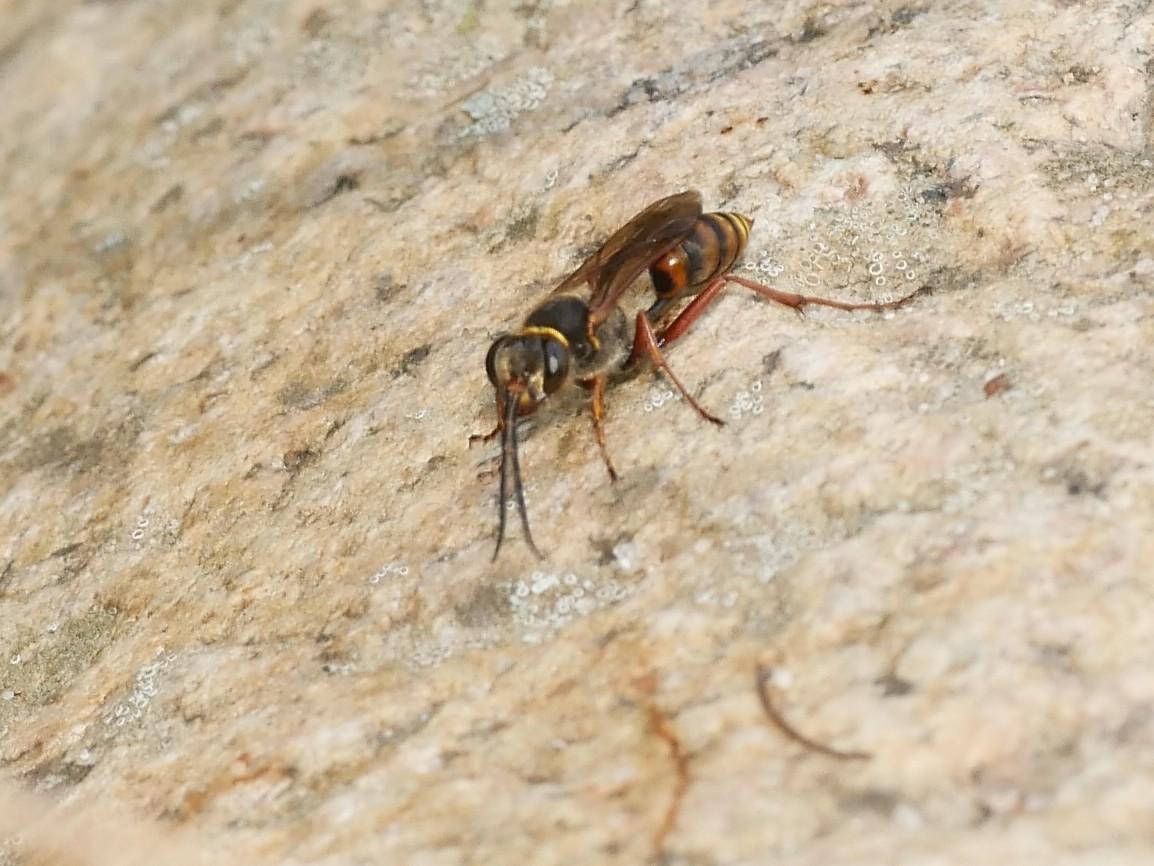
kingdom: Animalia
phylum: Arthropoda
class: Insecta
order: Hymenoptera
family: Sphecidae
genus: Sceliphron
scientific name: Sceliphron curvatum
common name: Pèlopèe
